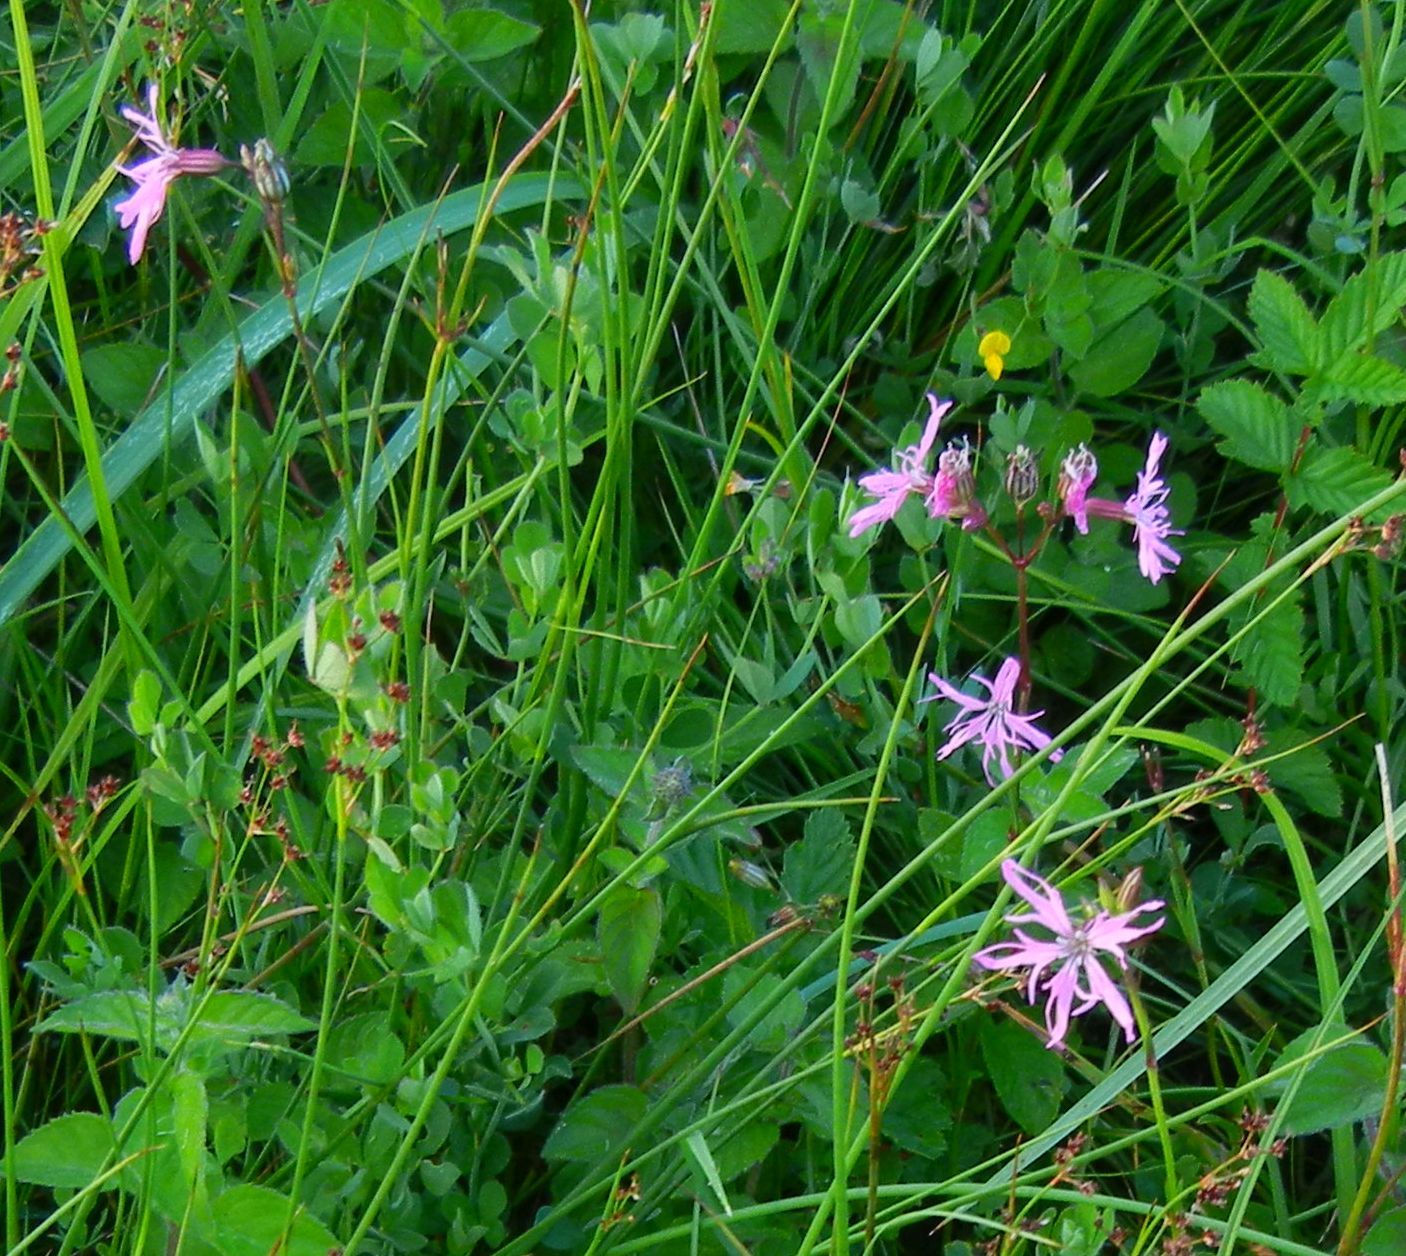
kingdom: Plantae
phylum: Tracheophyta
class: Magnoliopsida
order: Caryophyllales
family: Caryophyllaceae
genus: Silene
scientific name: Silene flos-cuculi
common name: Ragged-robin
